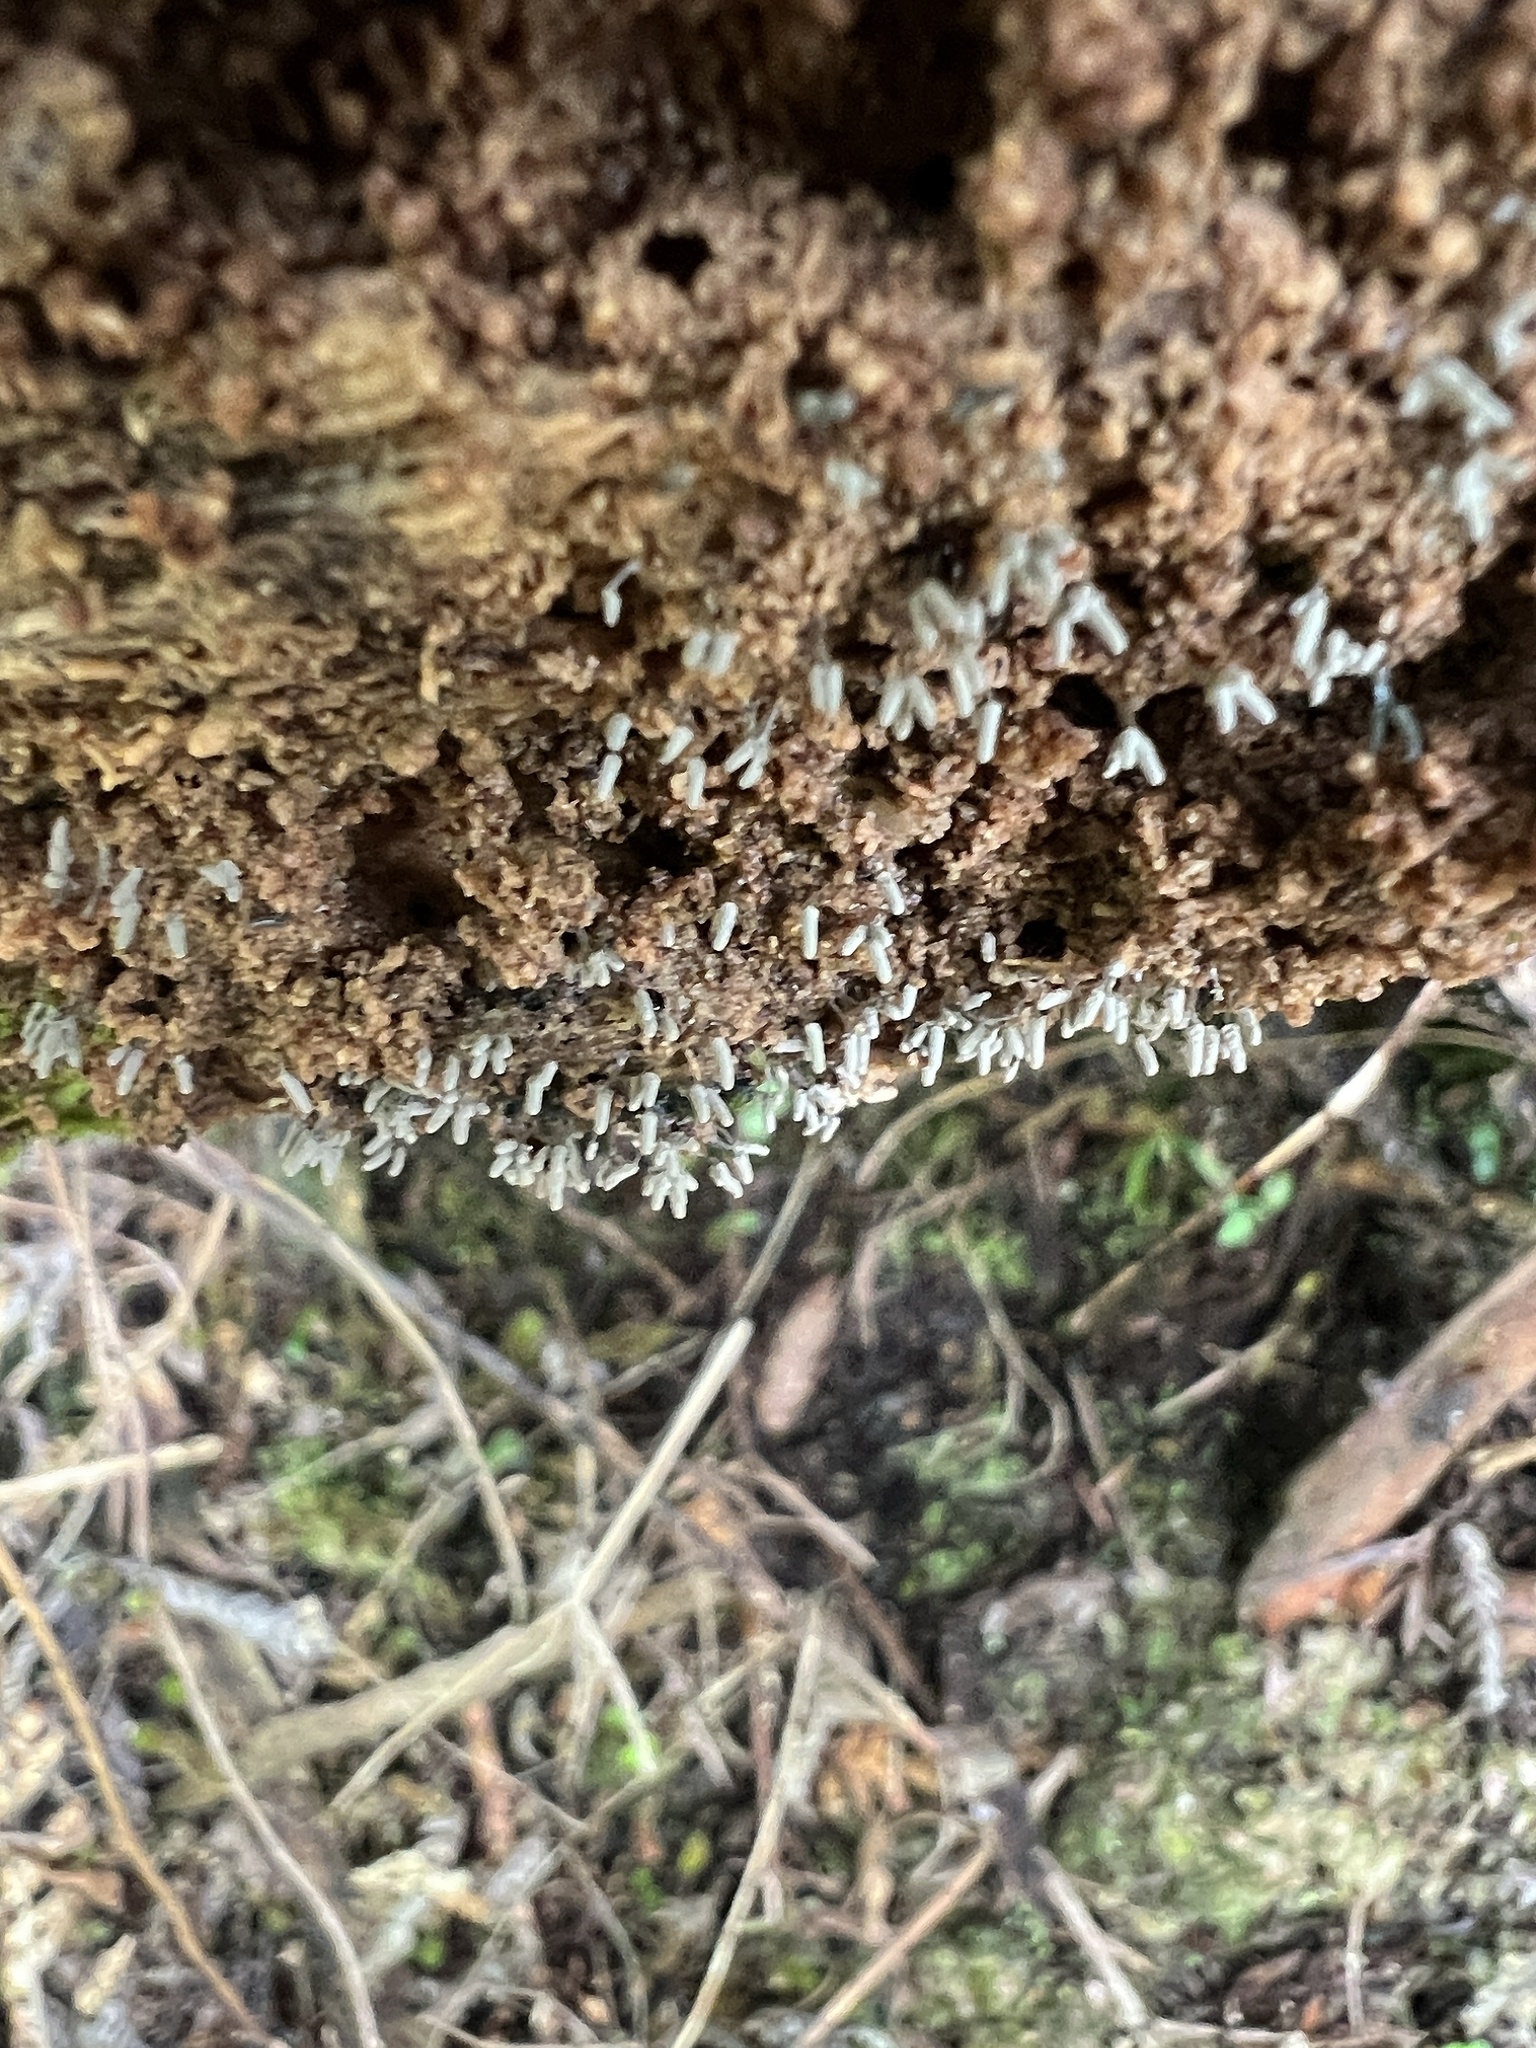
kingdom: Protozoa
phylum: Mycetozoa
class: Myxomycetes
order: Trichiales
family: Arcyriaceae
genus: Arcyria
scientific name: Arcyria cinerea
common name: White carnival candy slime mold
